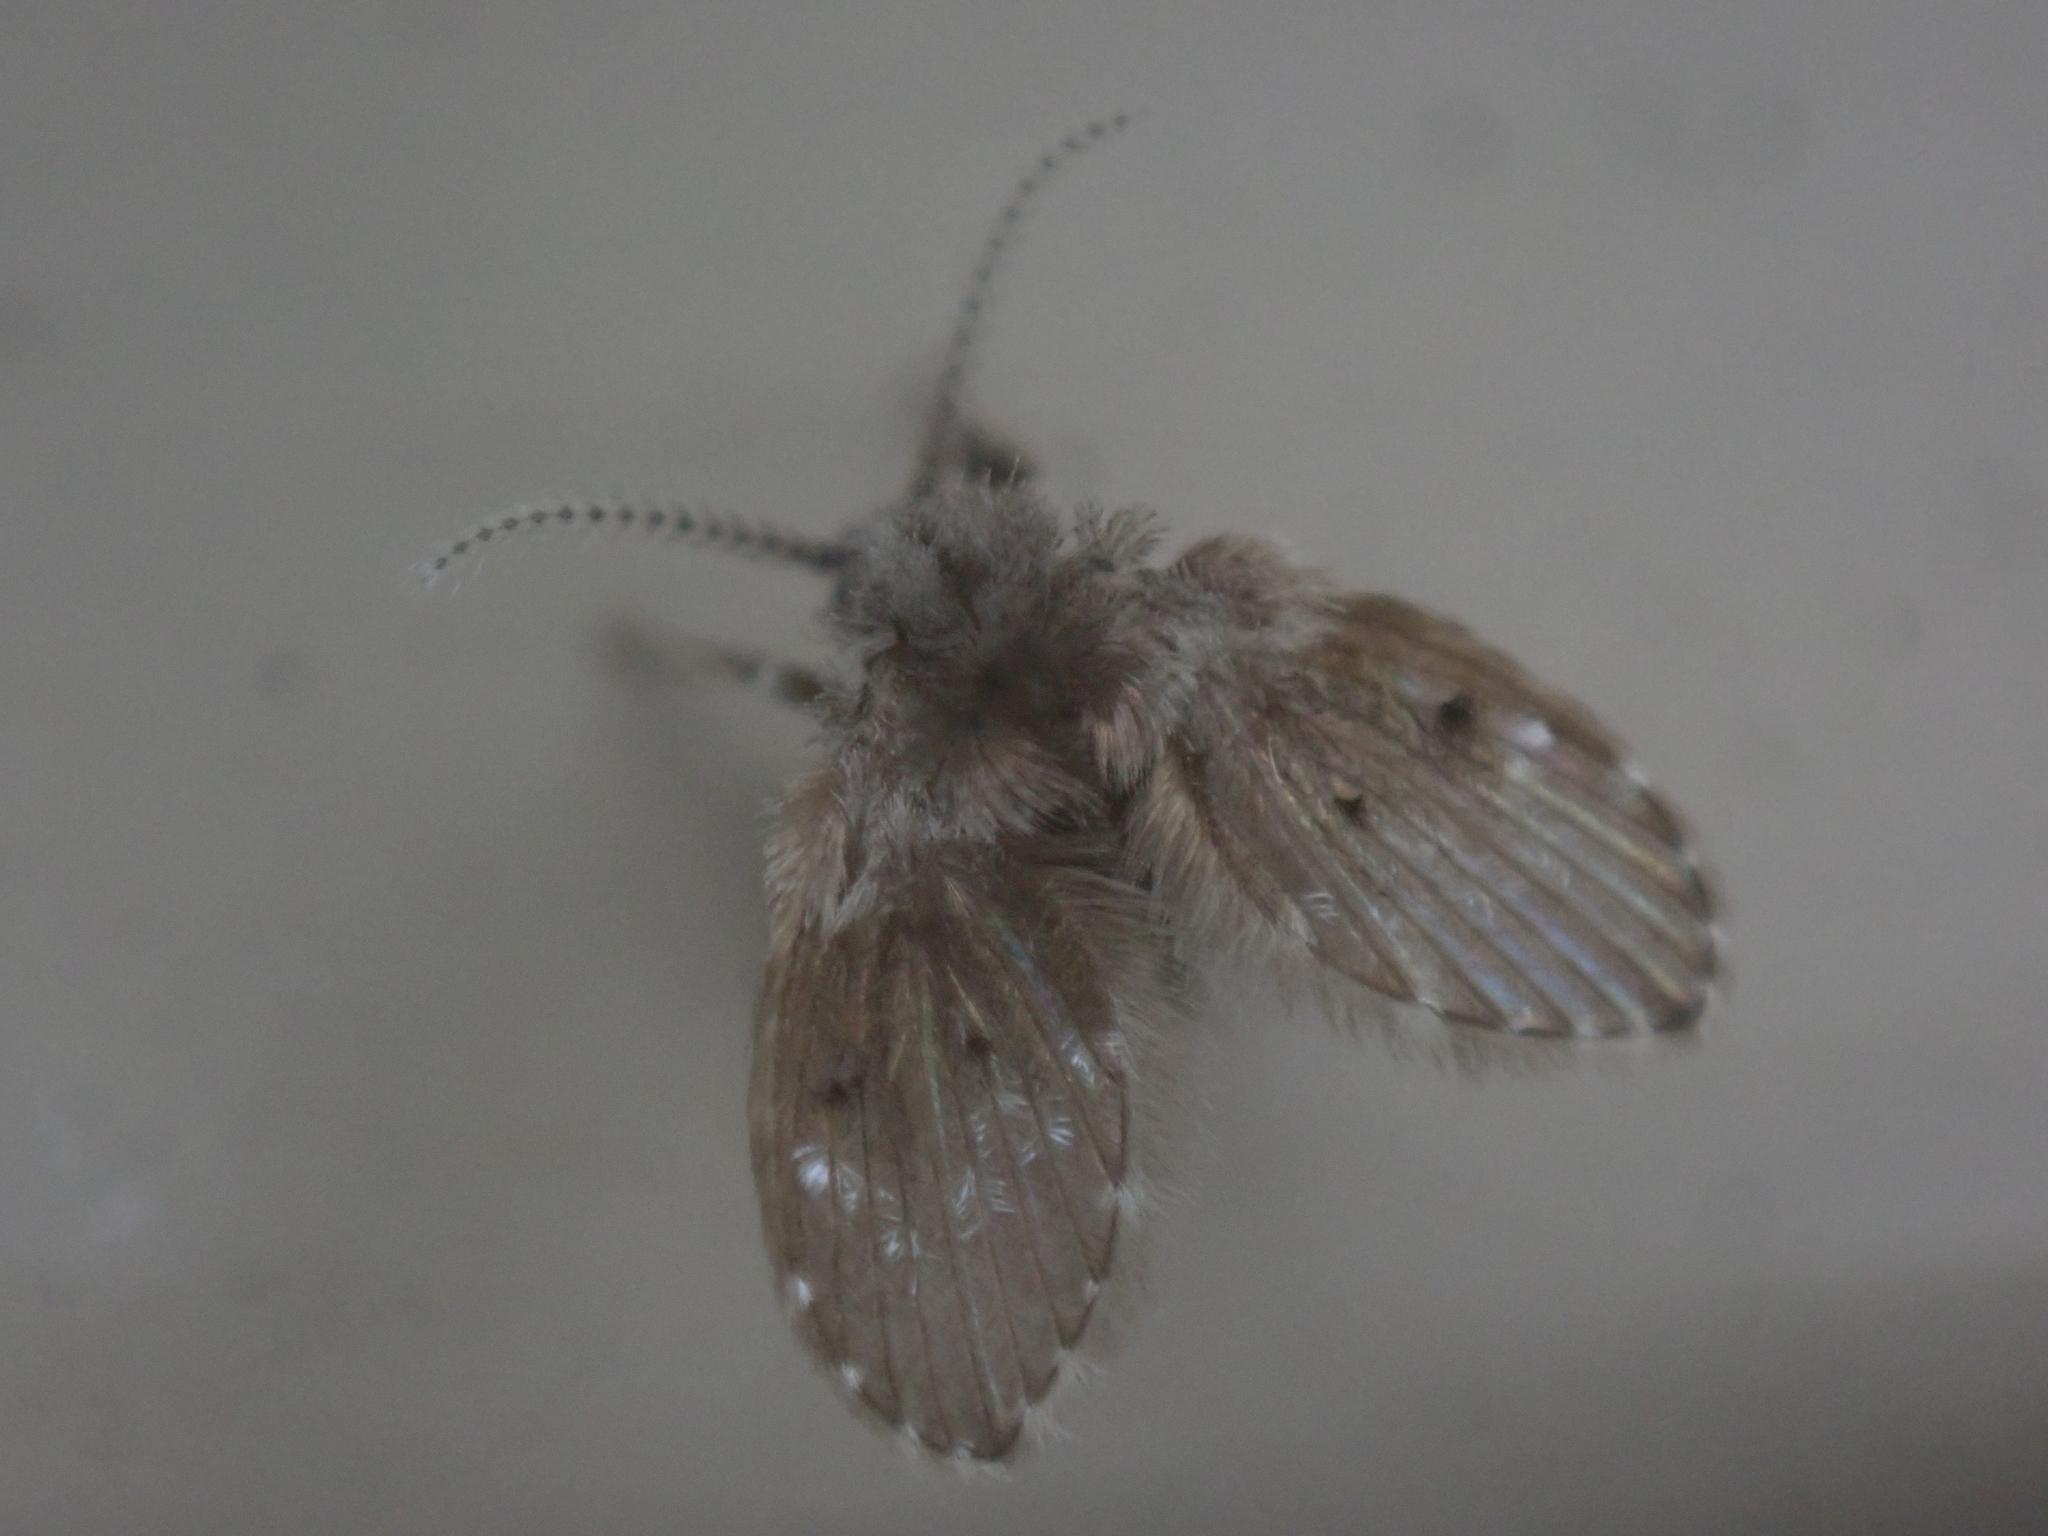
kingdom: Animalia
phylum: Arthropoda
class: Insecta
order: Diptera
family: Psychodidae
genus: Clogmia
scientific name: Clogmia albipunctatus
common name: White-spotted moth fly
